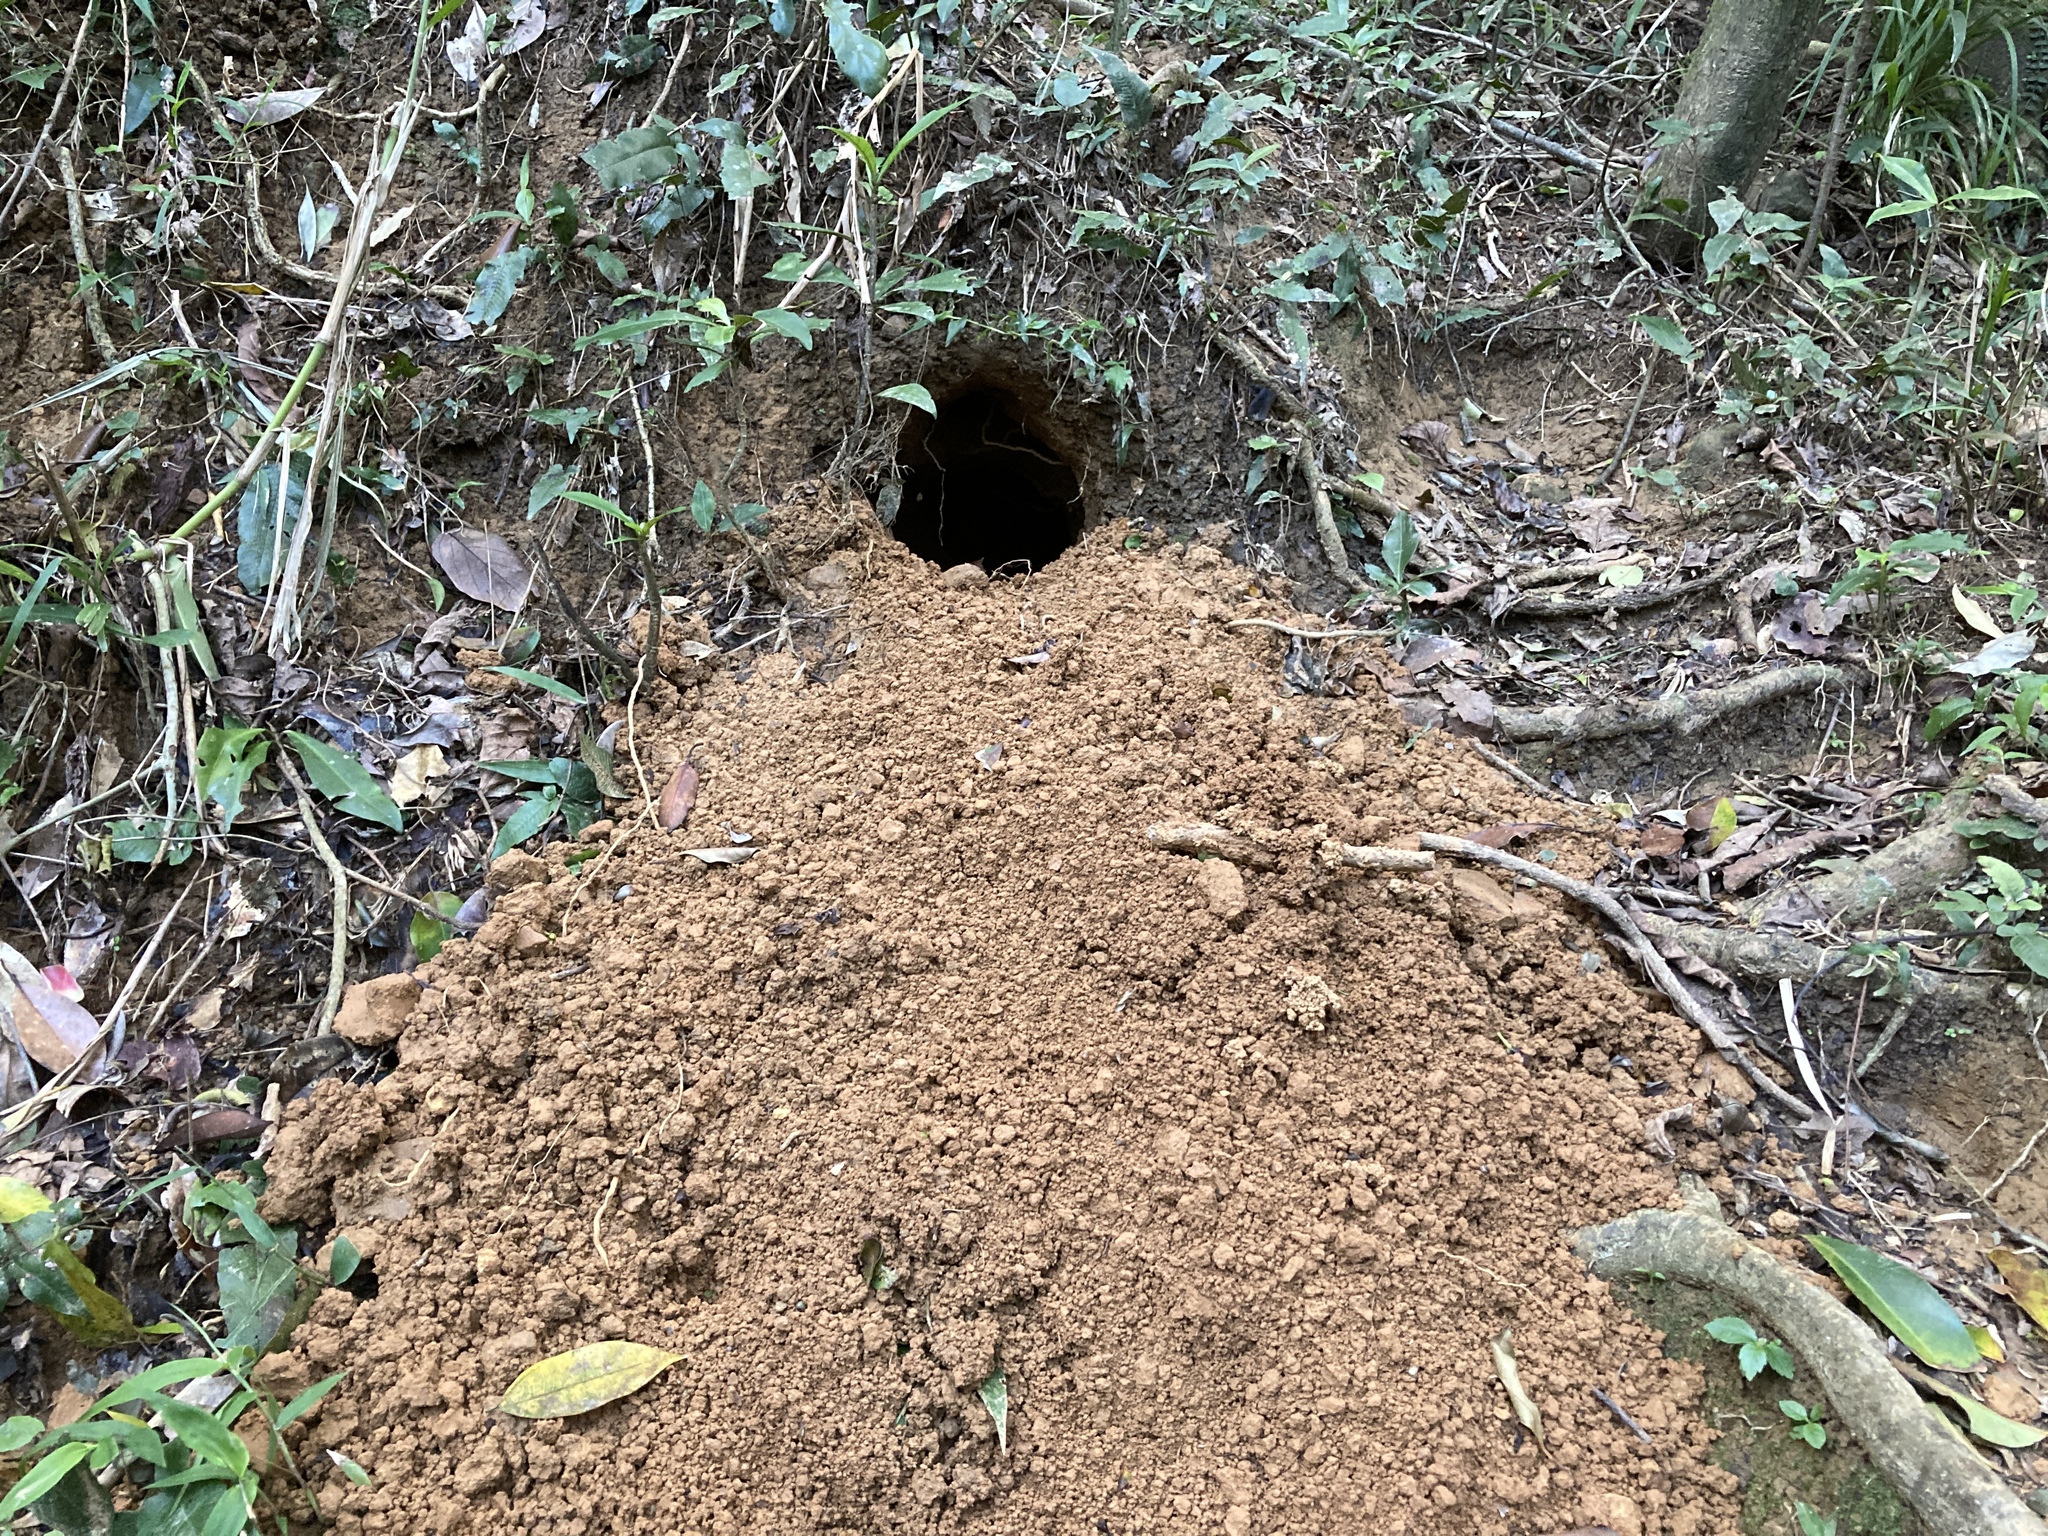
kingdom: Animalia
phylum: Chordata
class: Mammalia
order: Pholidota
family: Manidae
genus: Manis
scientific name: Manis pentadactyla
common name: Chinese pangolin
